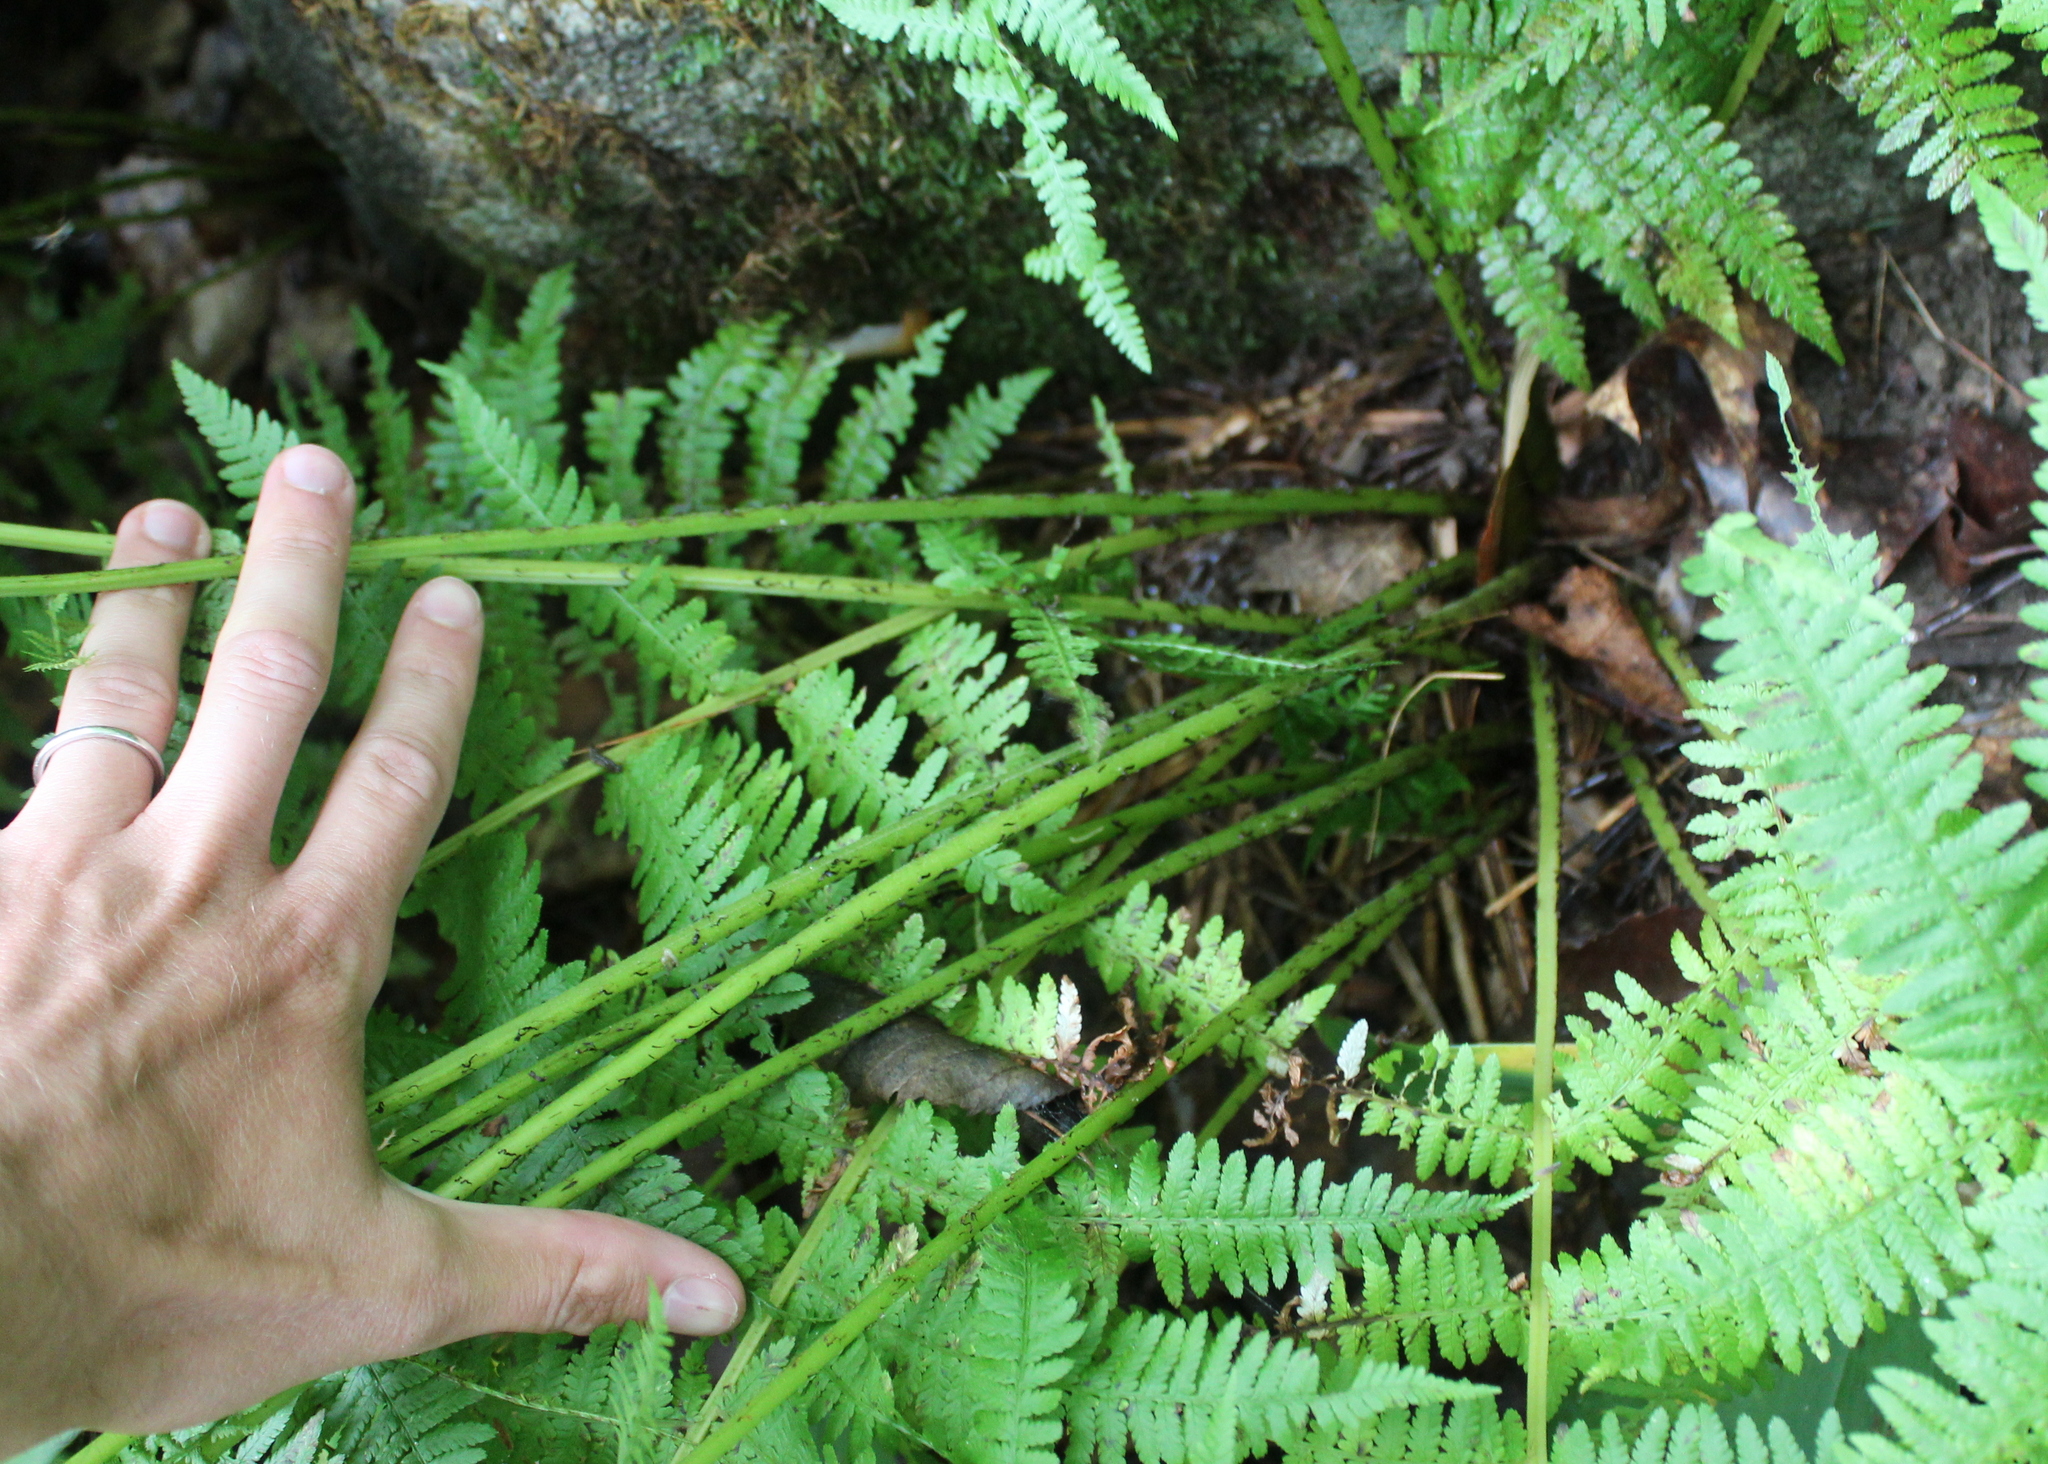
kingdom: Plantae
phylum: Tracheophyta
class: Polypodiopsida
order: Polypodiales
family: Athyriaceae
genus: Athyrium
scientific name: Athyrium angustum
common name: Northern lady fern
